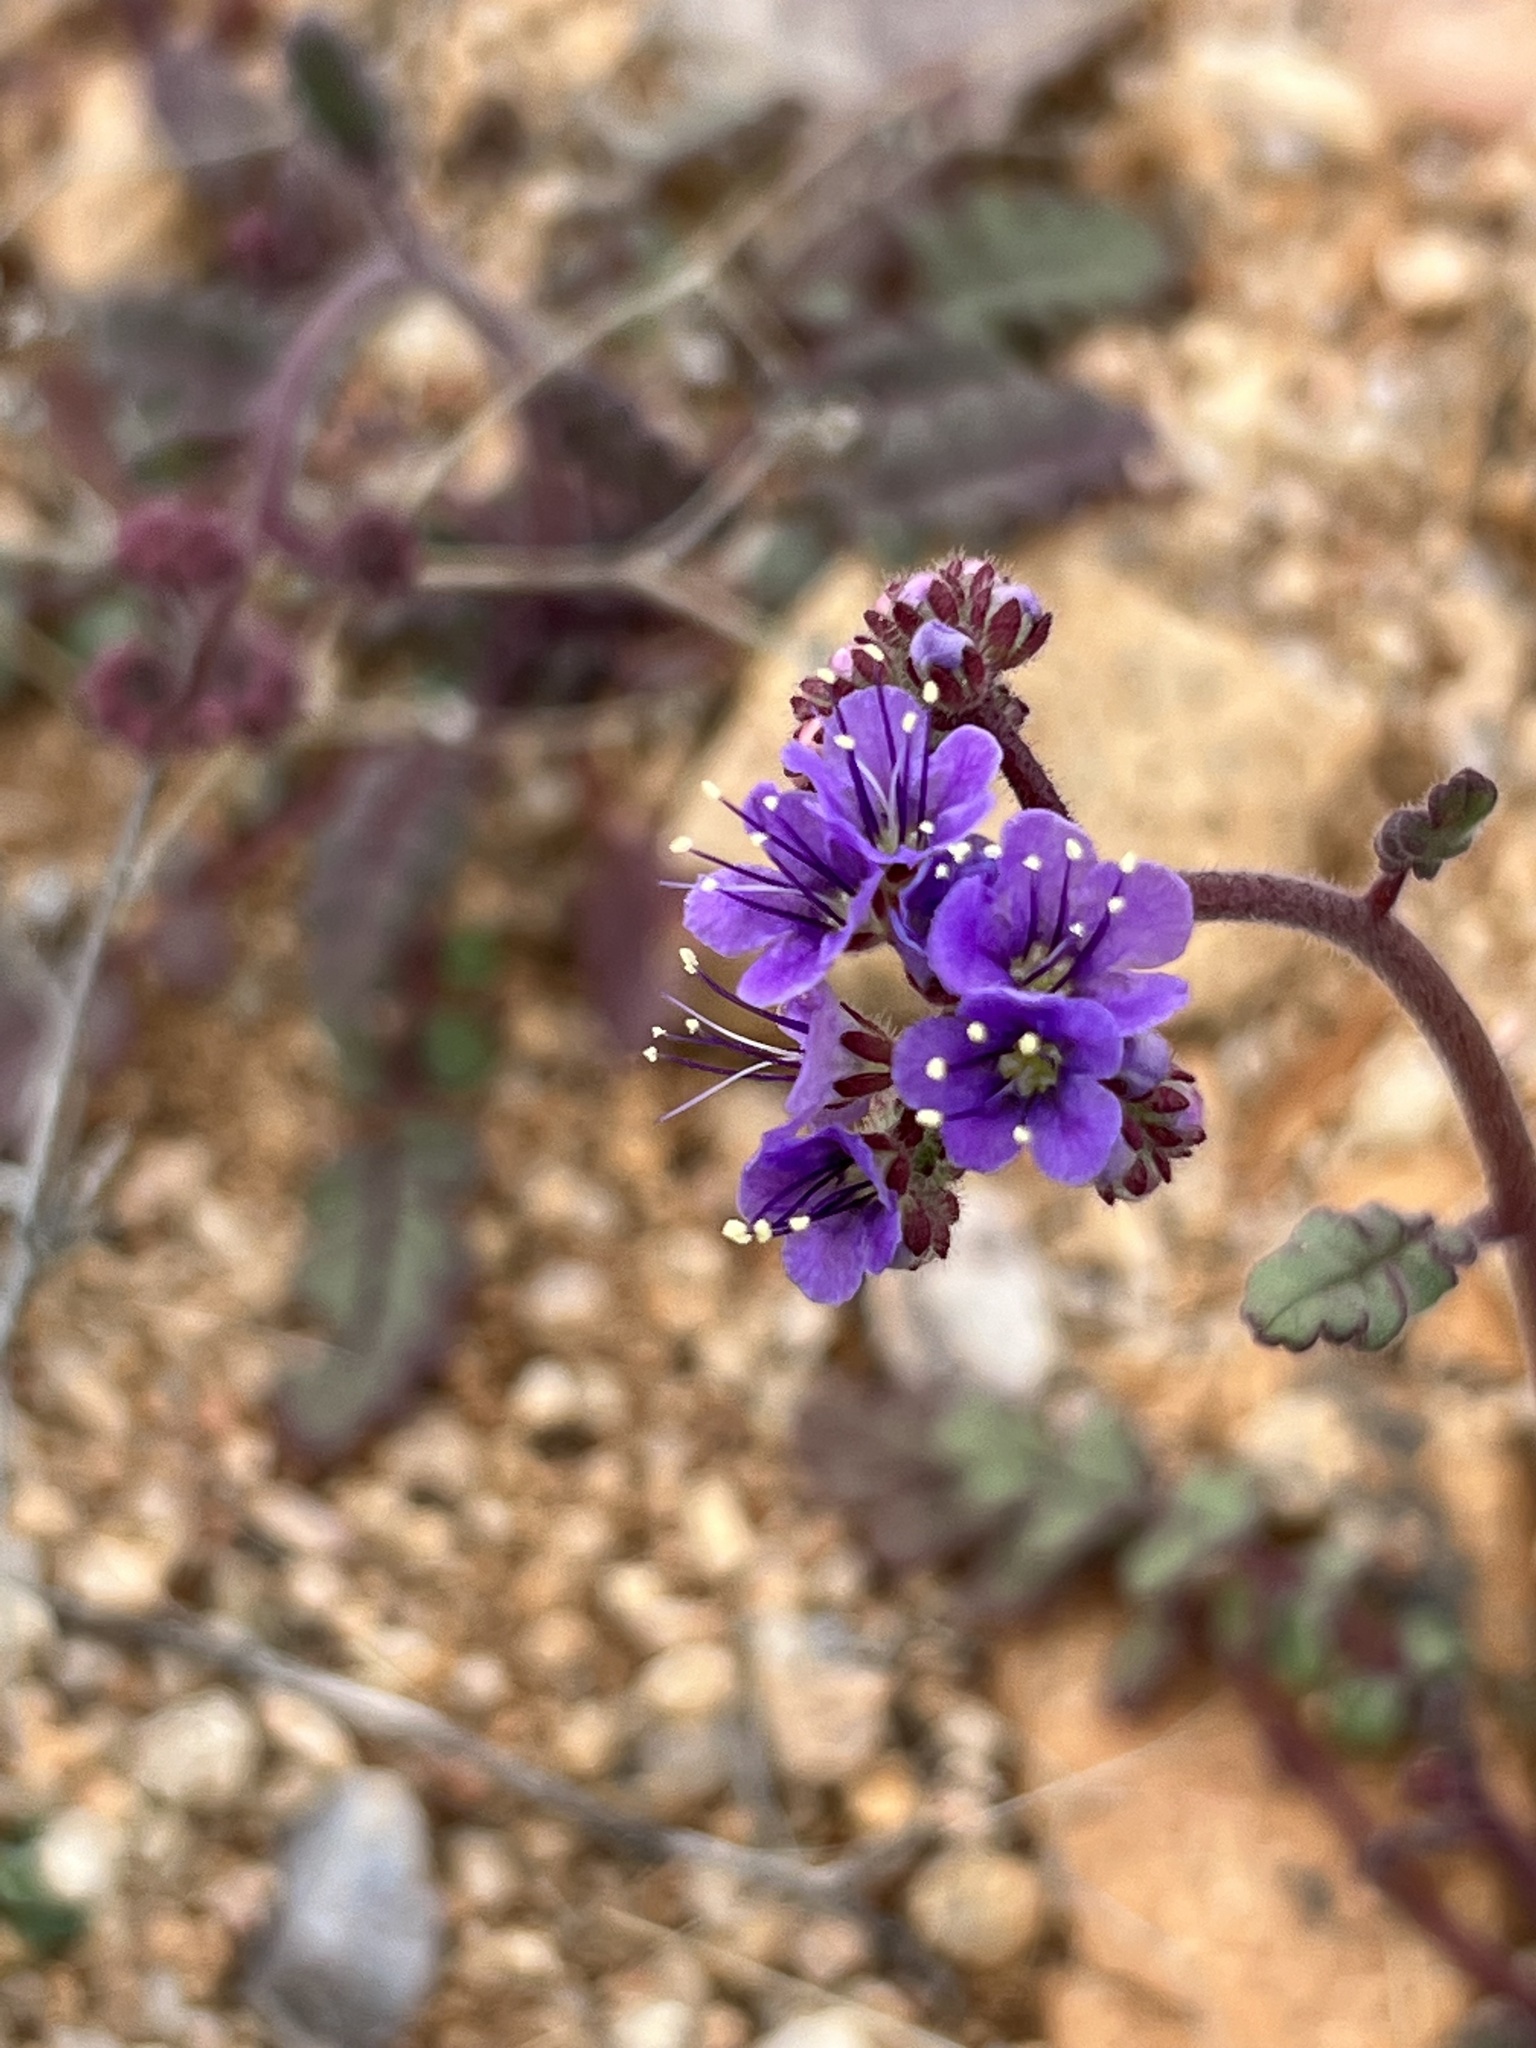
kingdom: Plantae
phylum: Tracheophyta
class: Magnoliopsida
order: Boraginales
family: Hydrophyllaceae
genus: Phacelia
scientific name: Phacelia crenulata
